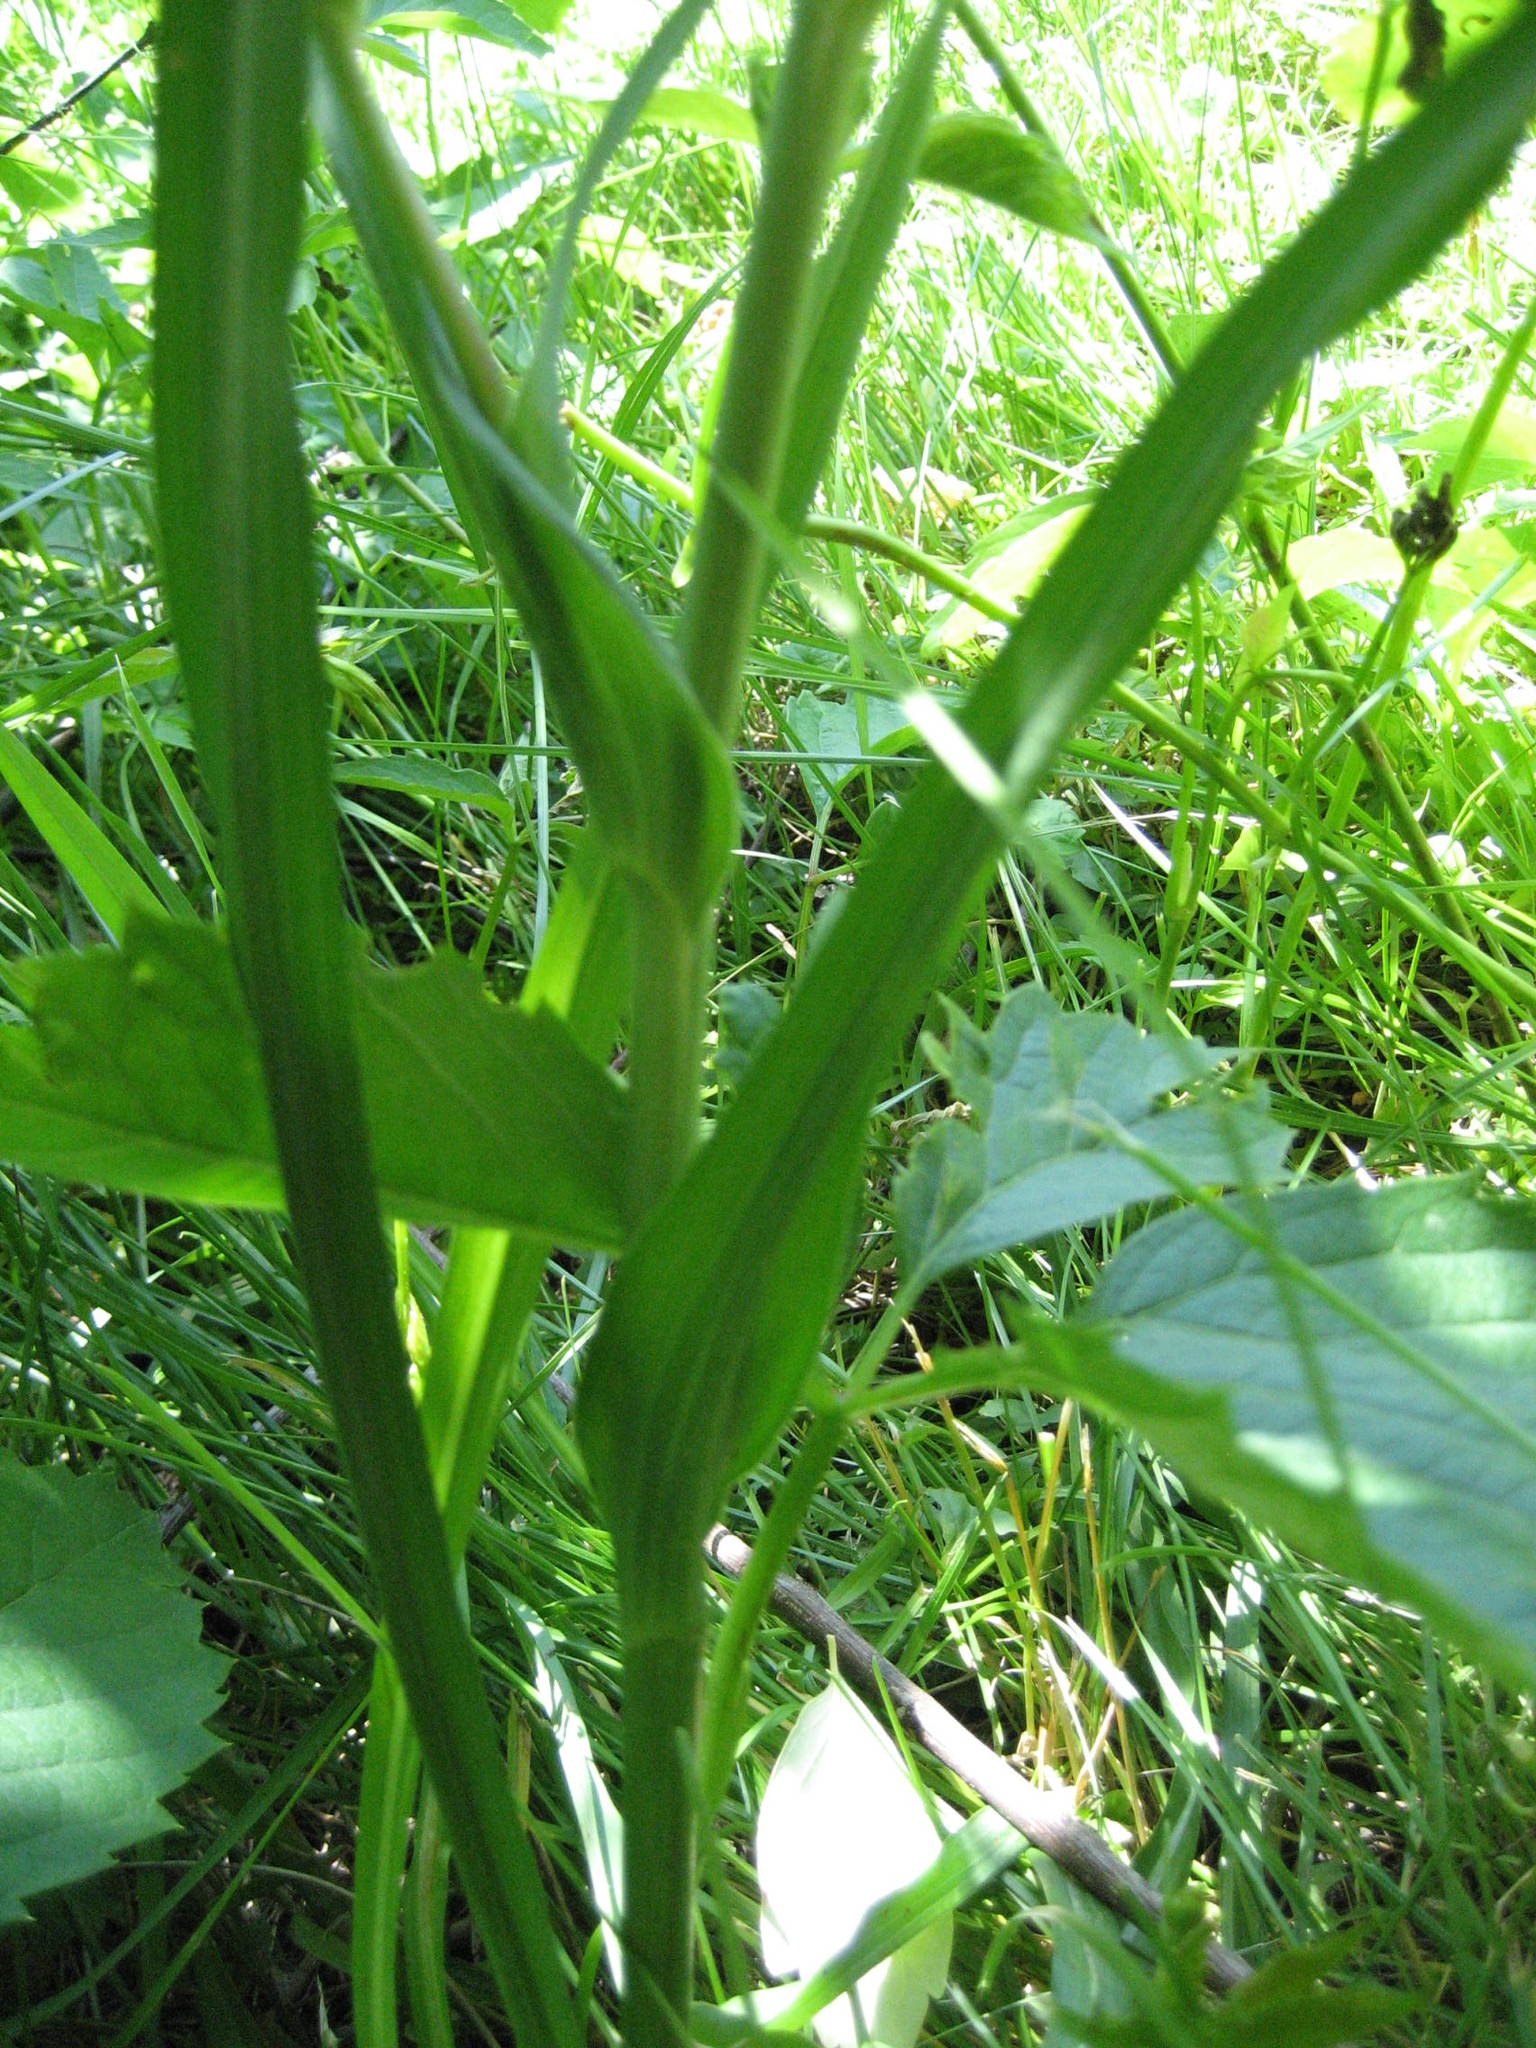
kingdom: Plantae
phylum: Tracheophyta
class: Magnoliopsida
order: Asterales
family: Asteraceae
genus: Tragopogon
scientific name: Tragopogon pratensis
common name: Goat's-beard
